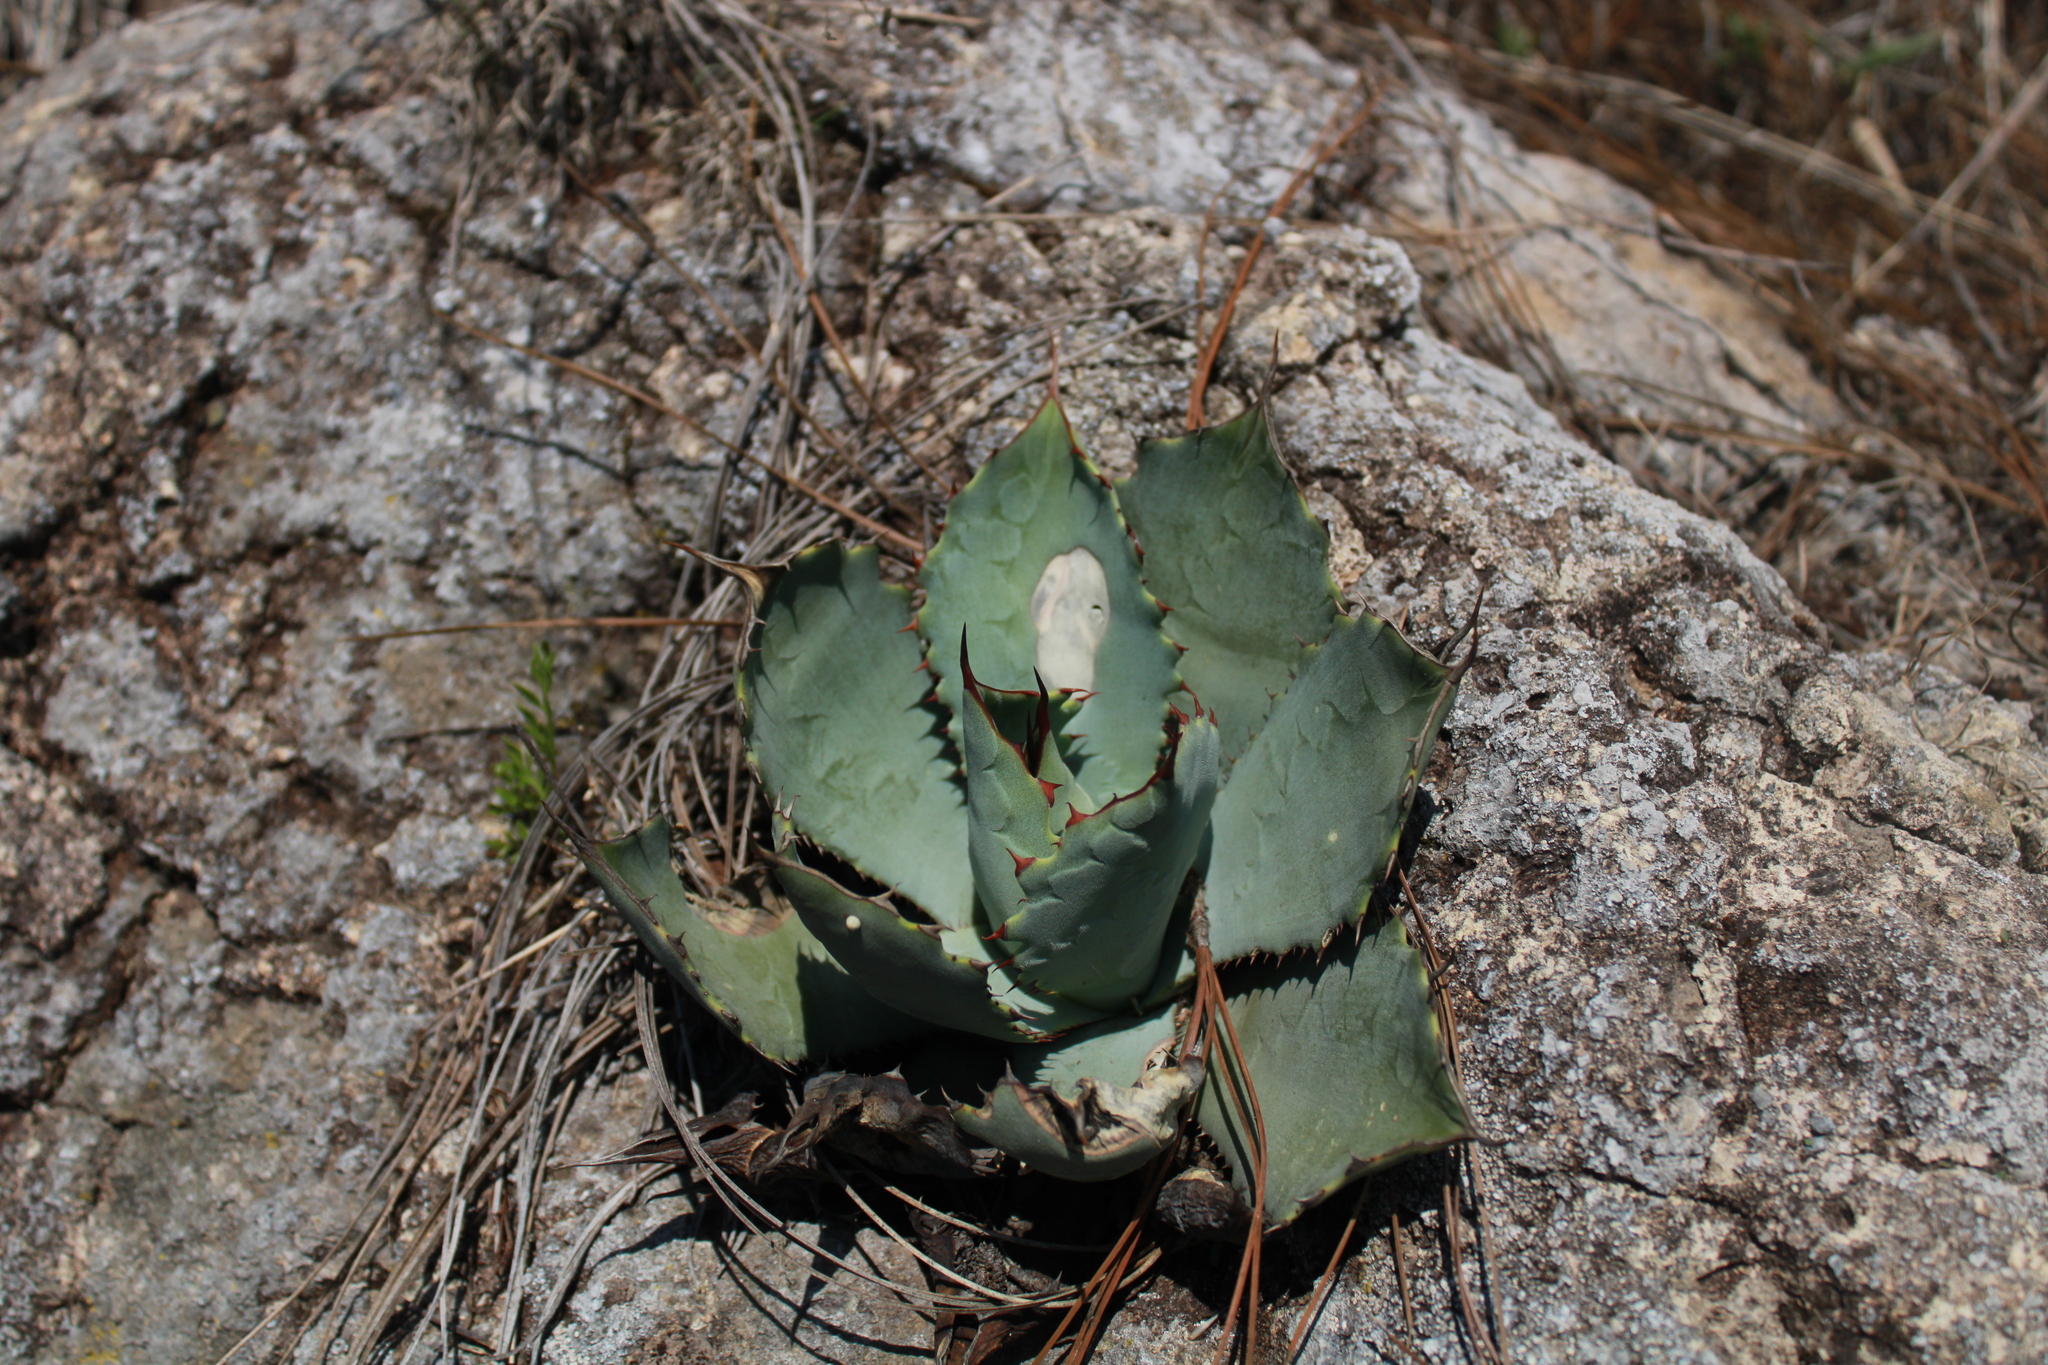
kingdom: Plantae
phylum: Tracheophyta
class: Liliopsida
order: Asparagales
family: Asparagaceae
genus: Agave
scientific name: Agave guadalajarana
